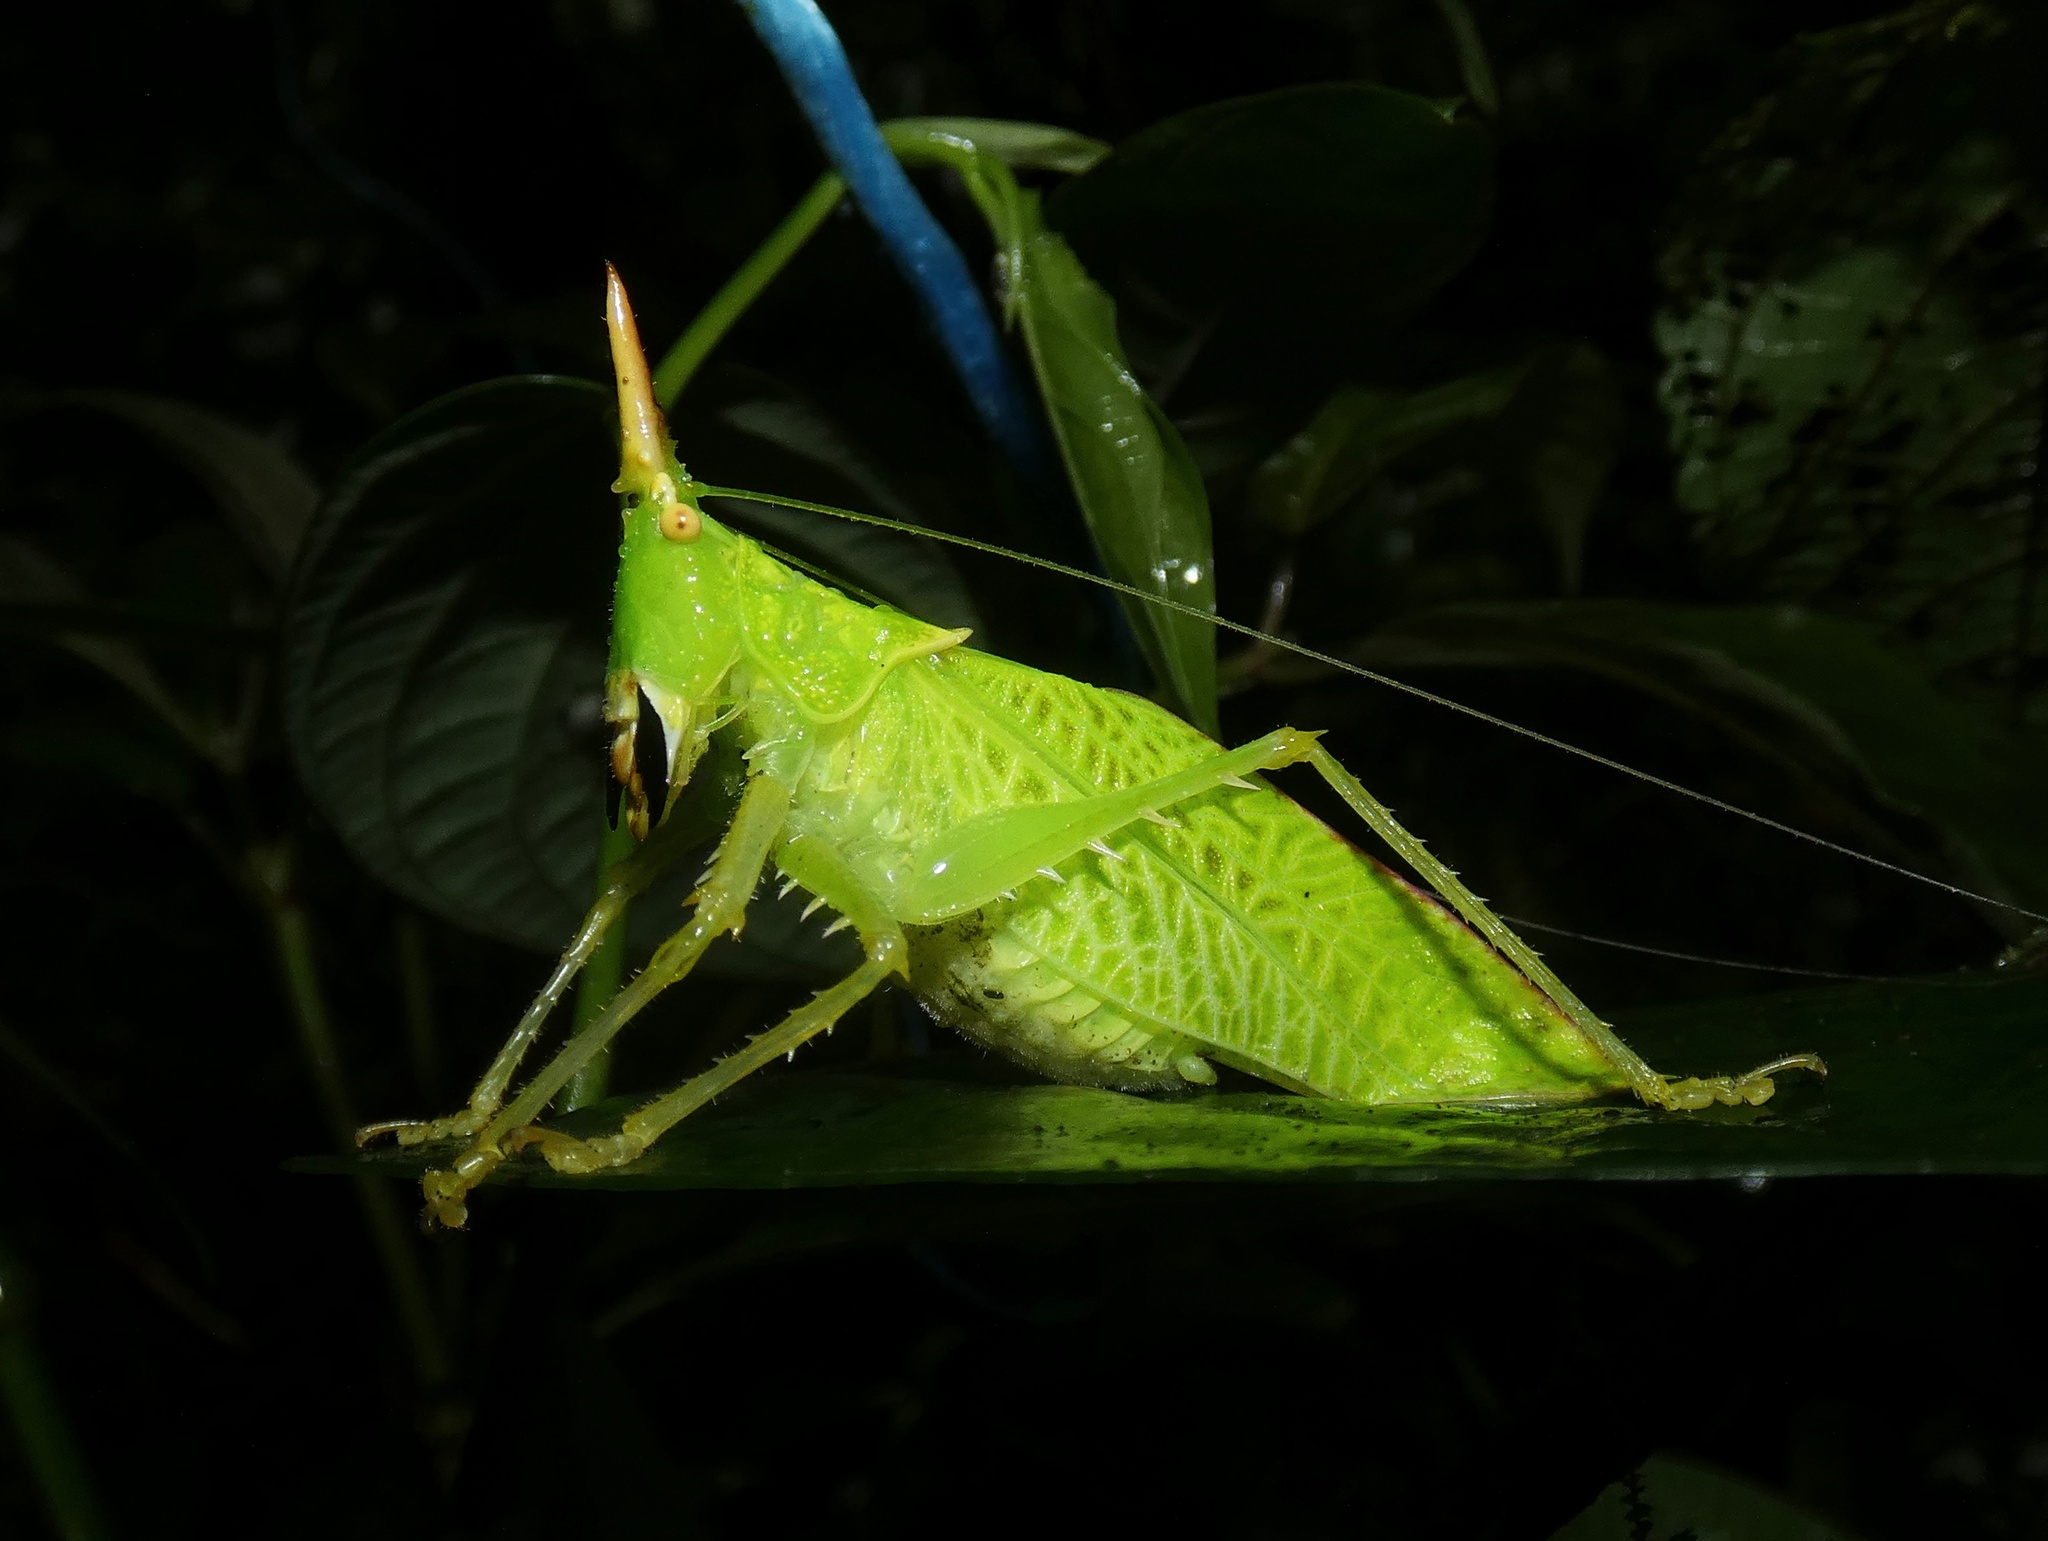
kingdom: Animalia
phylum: Arthropoda
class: Insecta
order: Orthoptera
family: Tettigoniidae
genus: Copiphora
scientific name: Copiphora rhinoceros
